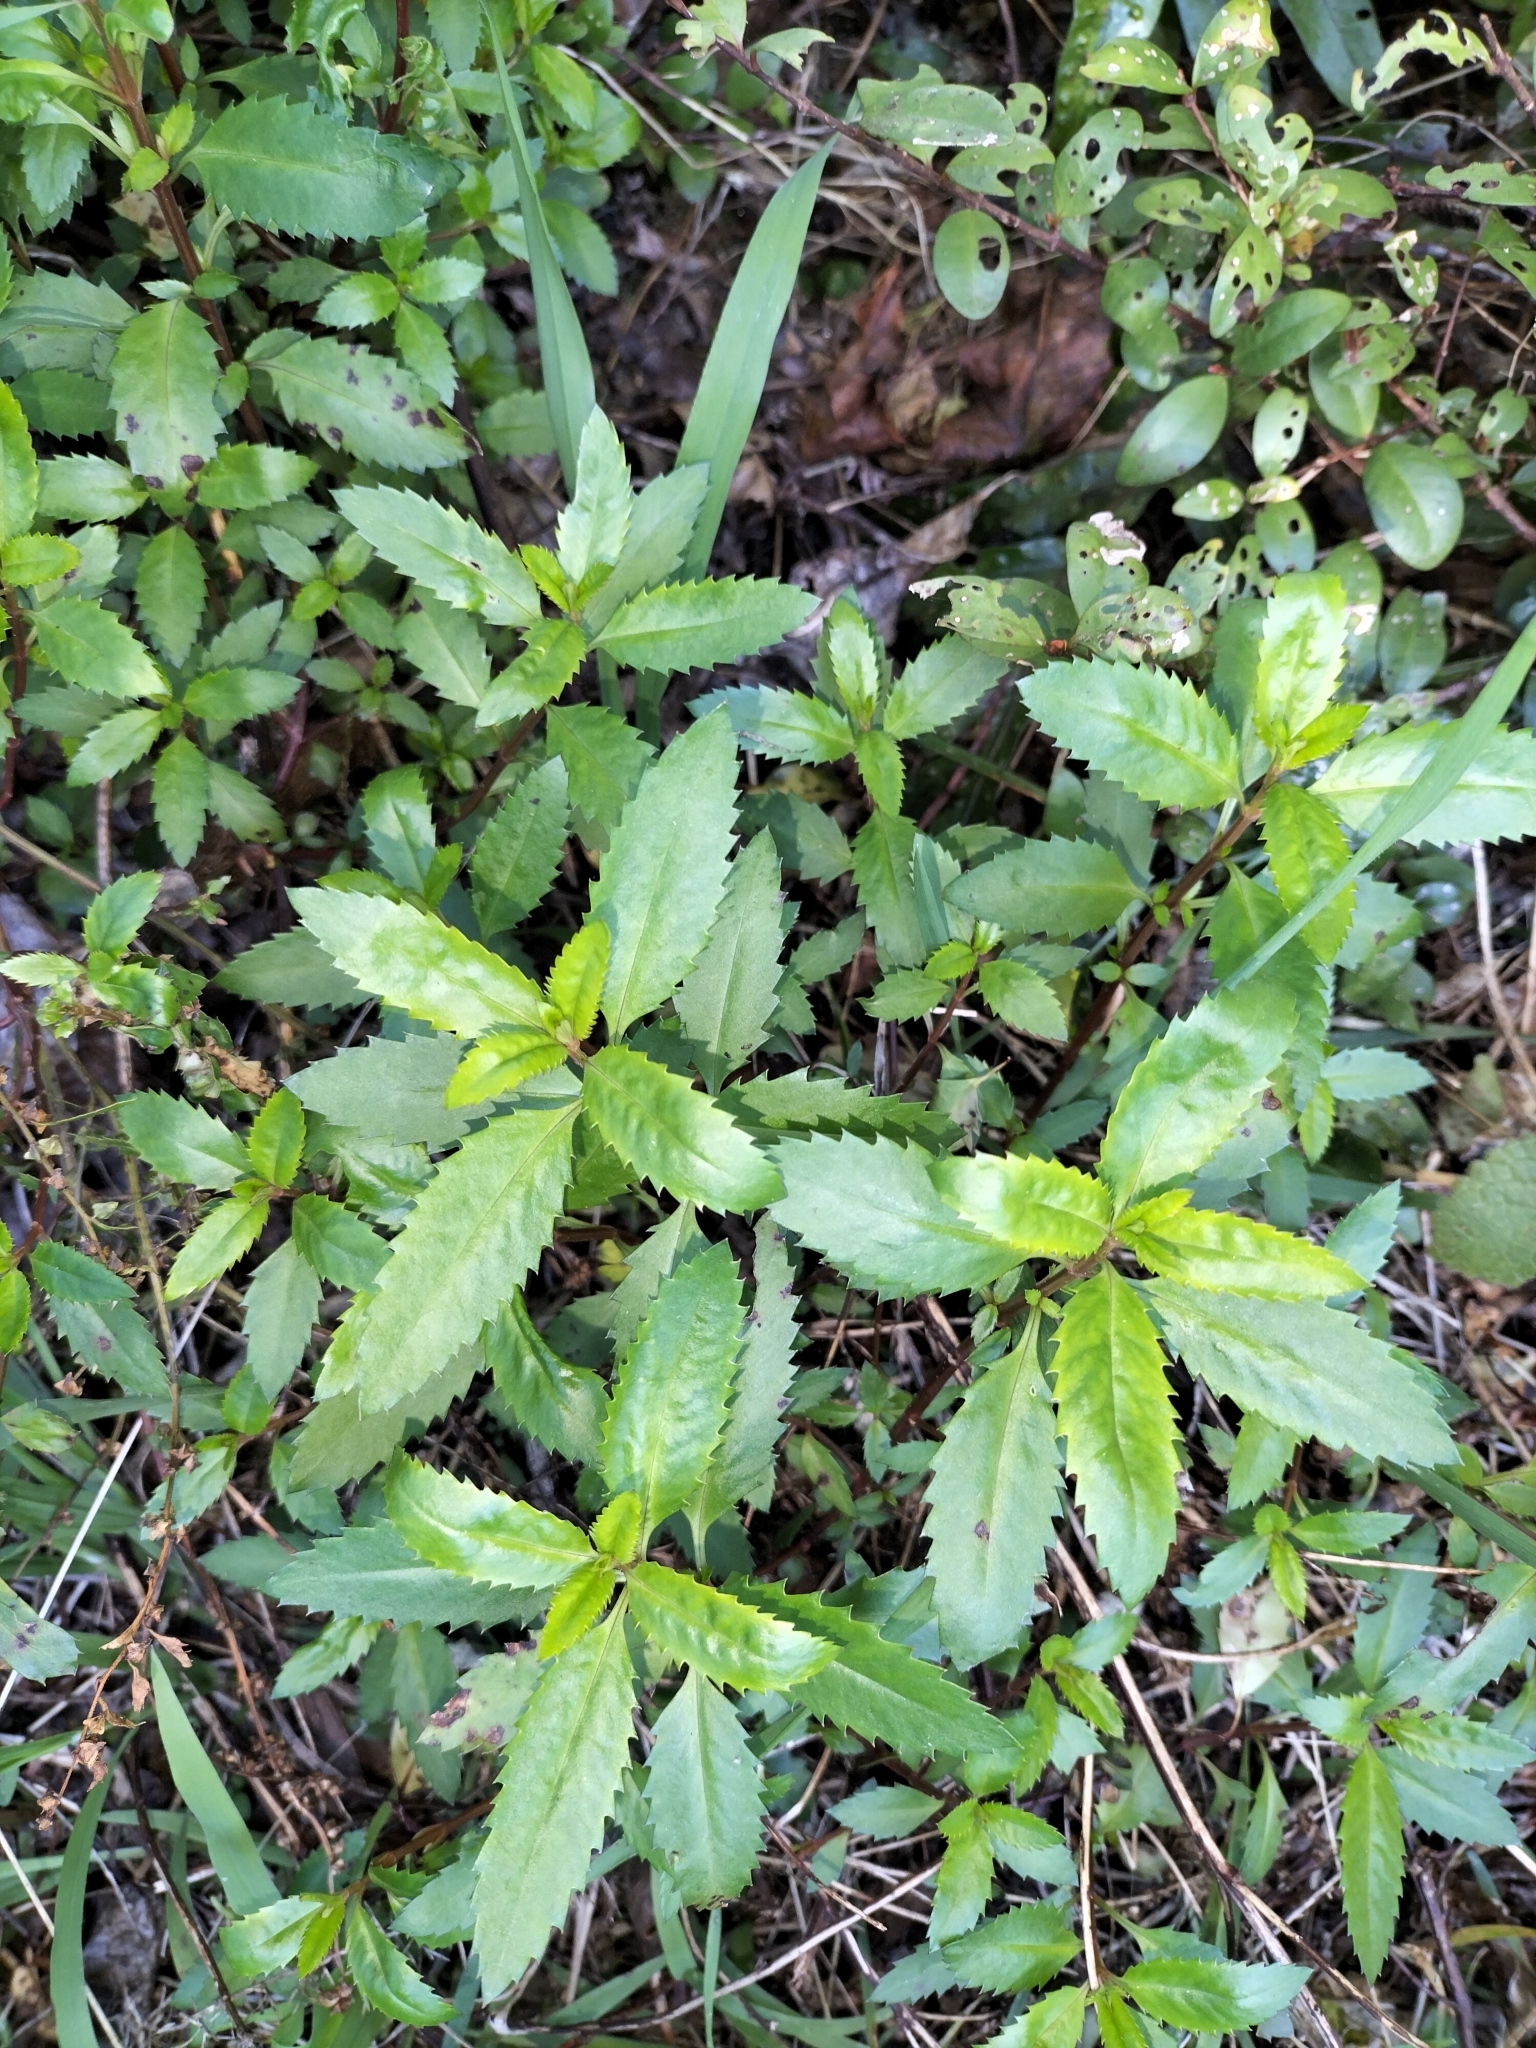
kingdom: Plantae
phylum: Tracheophyta
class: Magnoliopsida
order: Saxifragales
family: Haloragaceae
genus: Haloragis
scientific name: Haloragis erecta
